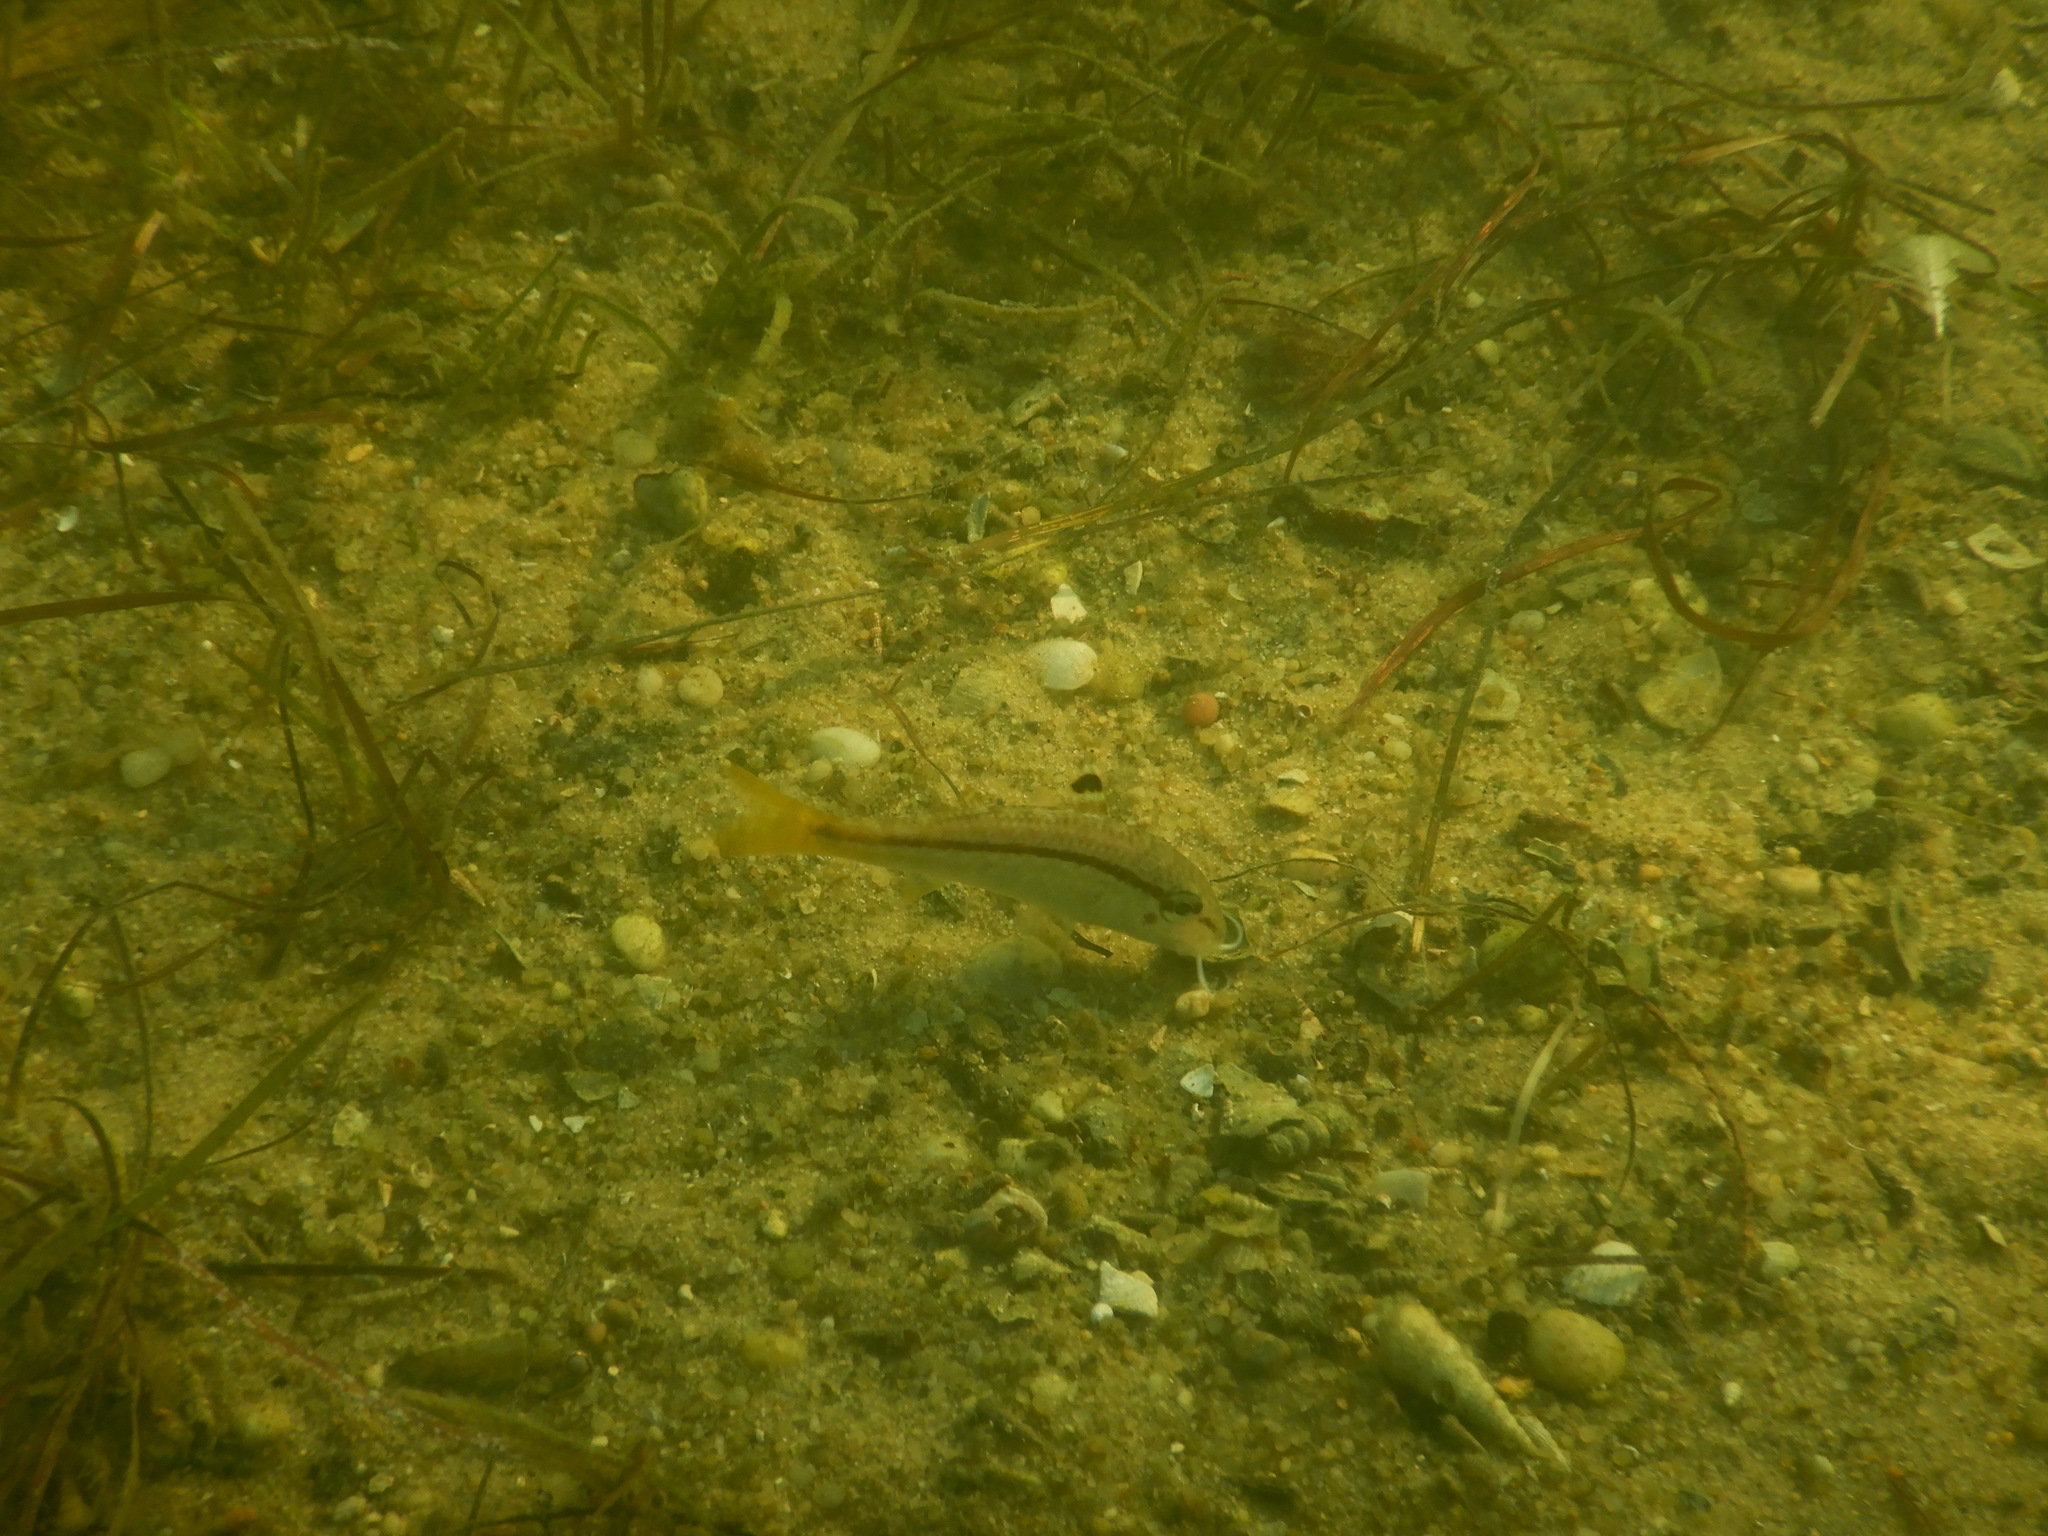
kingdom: Animalia
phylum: Chordata
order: Perciformes
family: Mullidae
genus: Mullus
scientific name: Mullus surmuletus
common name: Red mullet
